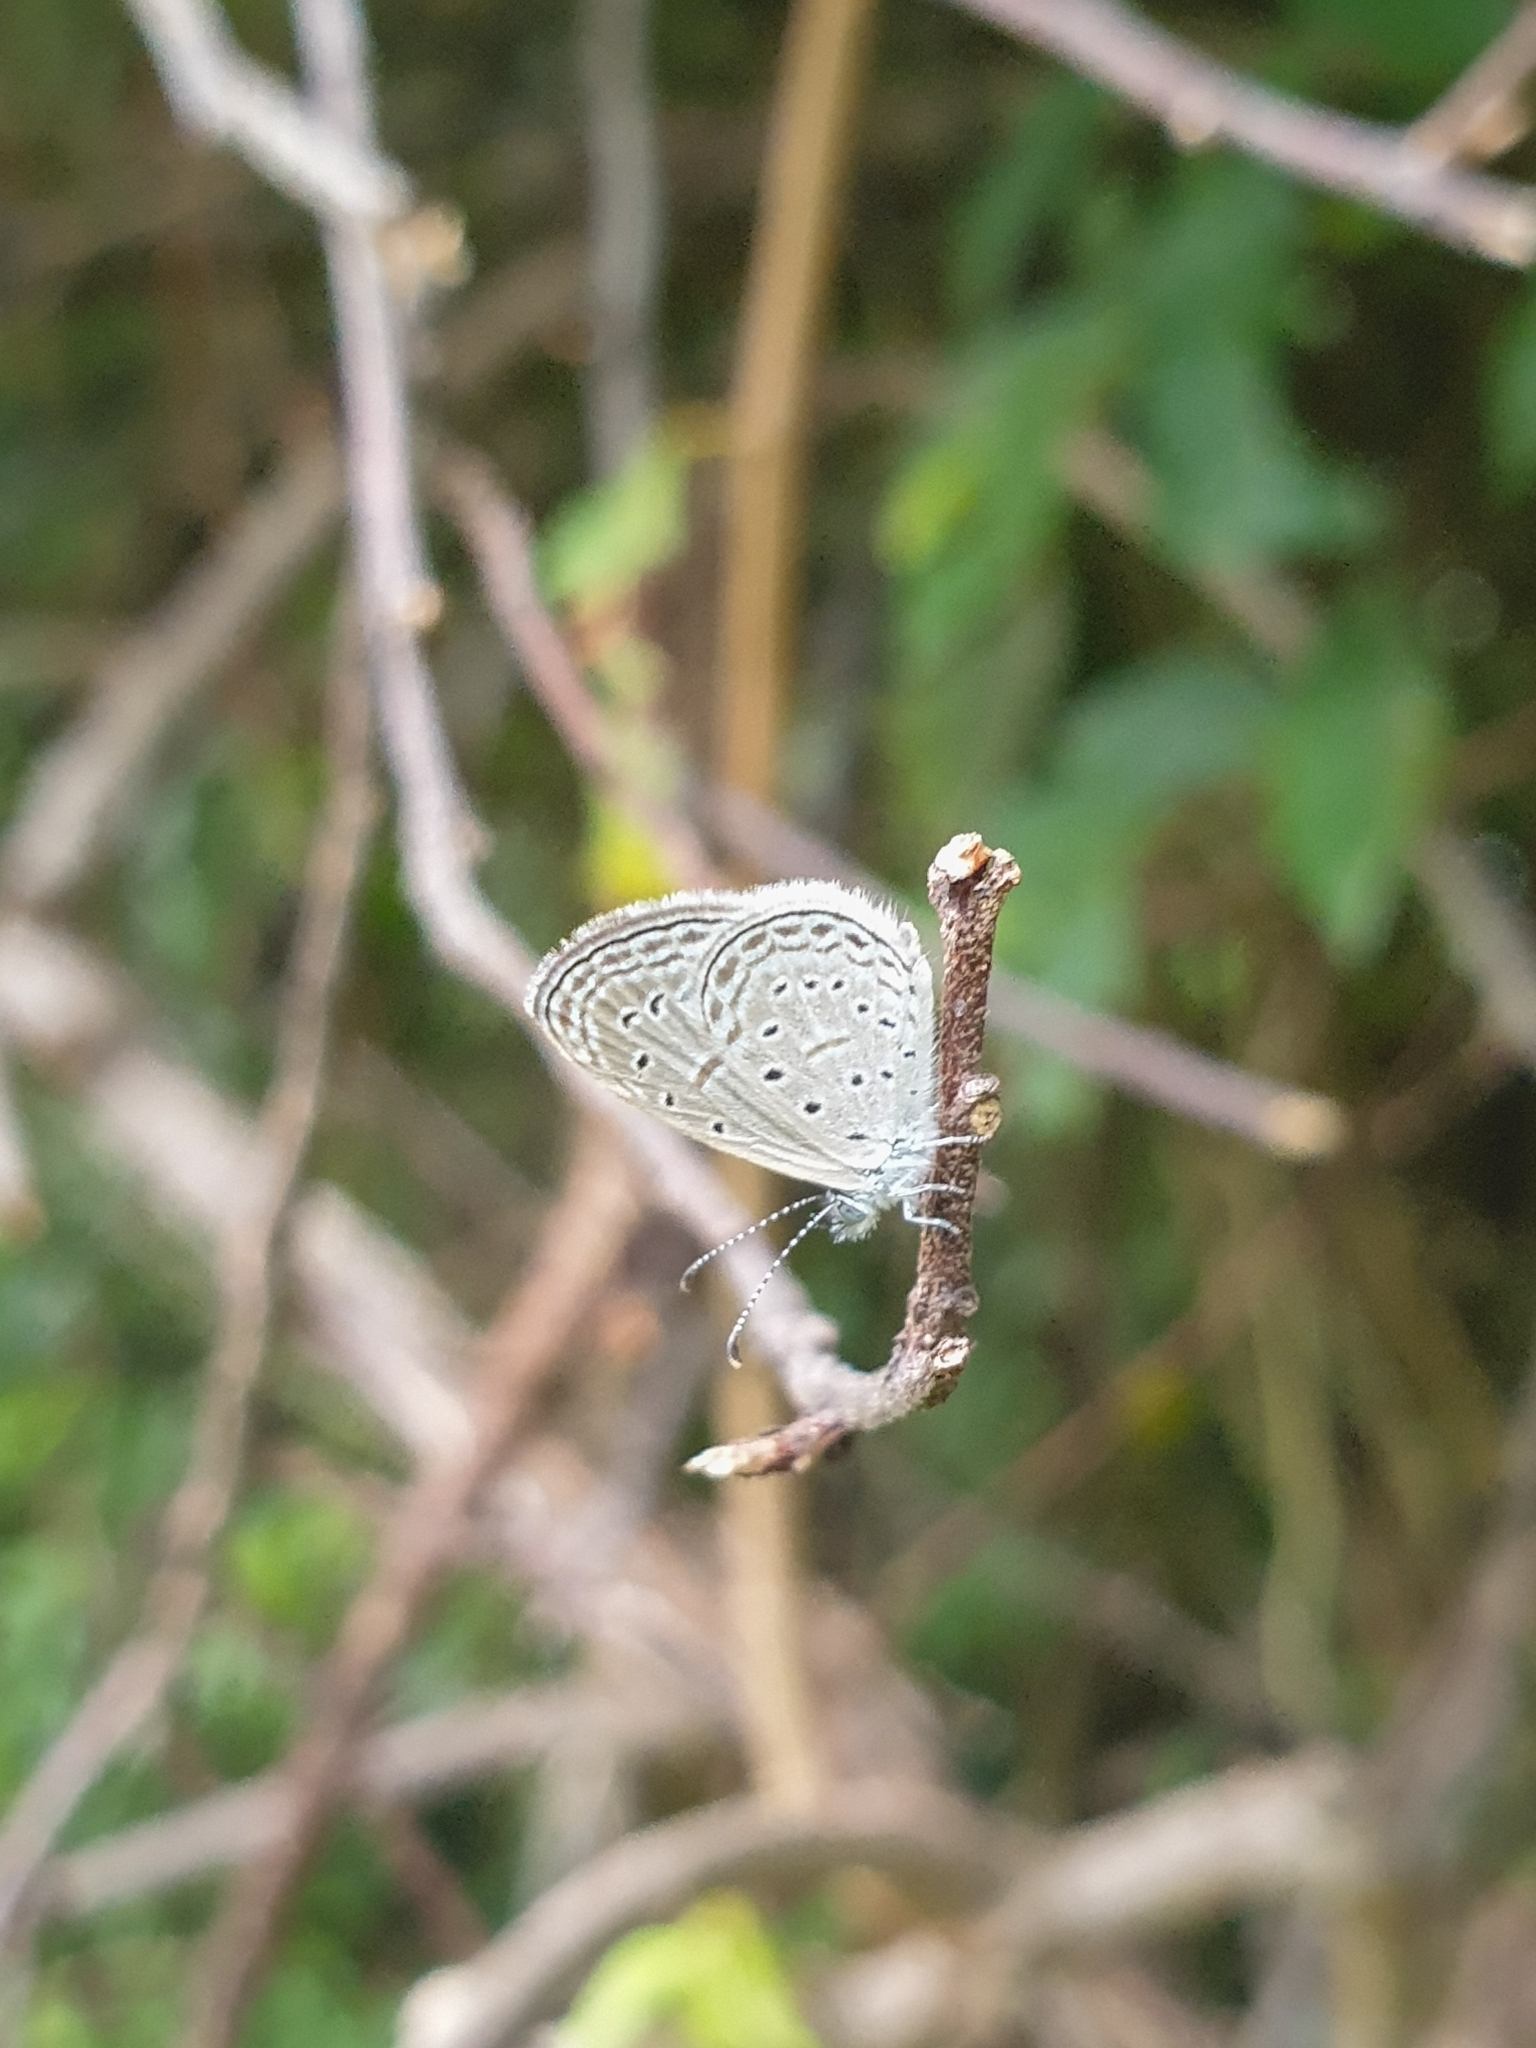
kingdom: Animalia
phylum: Arthropoda
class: Insecta
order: Lepidoptera
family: Lycaenidae
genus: Zizula
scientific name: Zizula hylax
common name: Gaika blue
